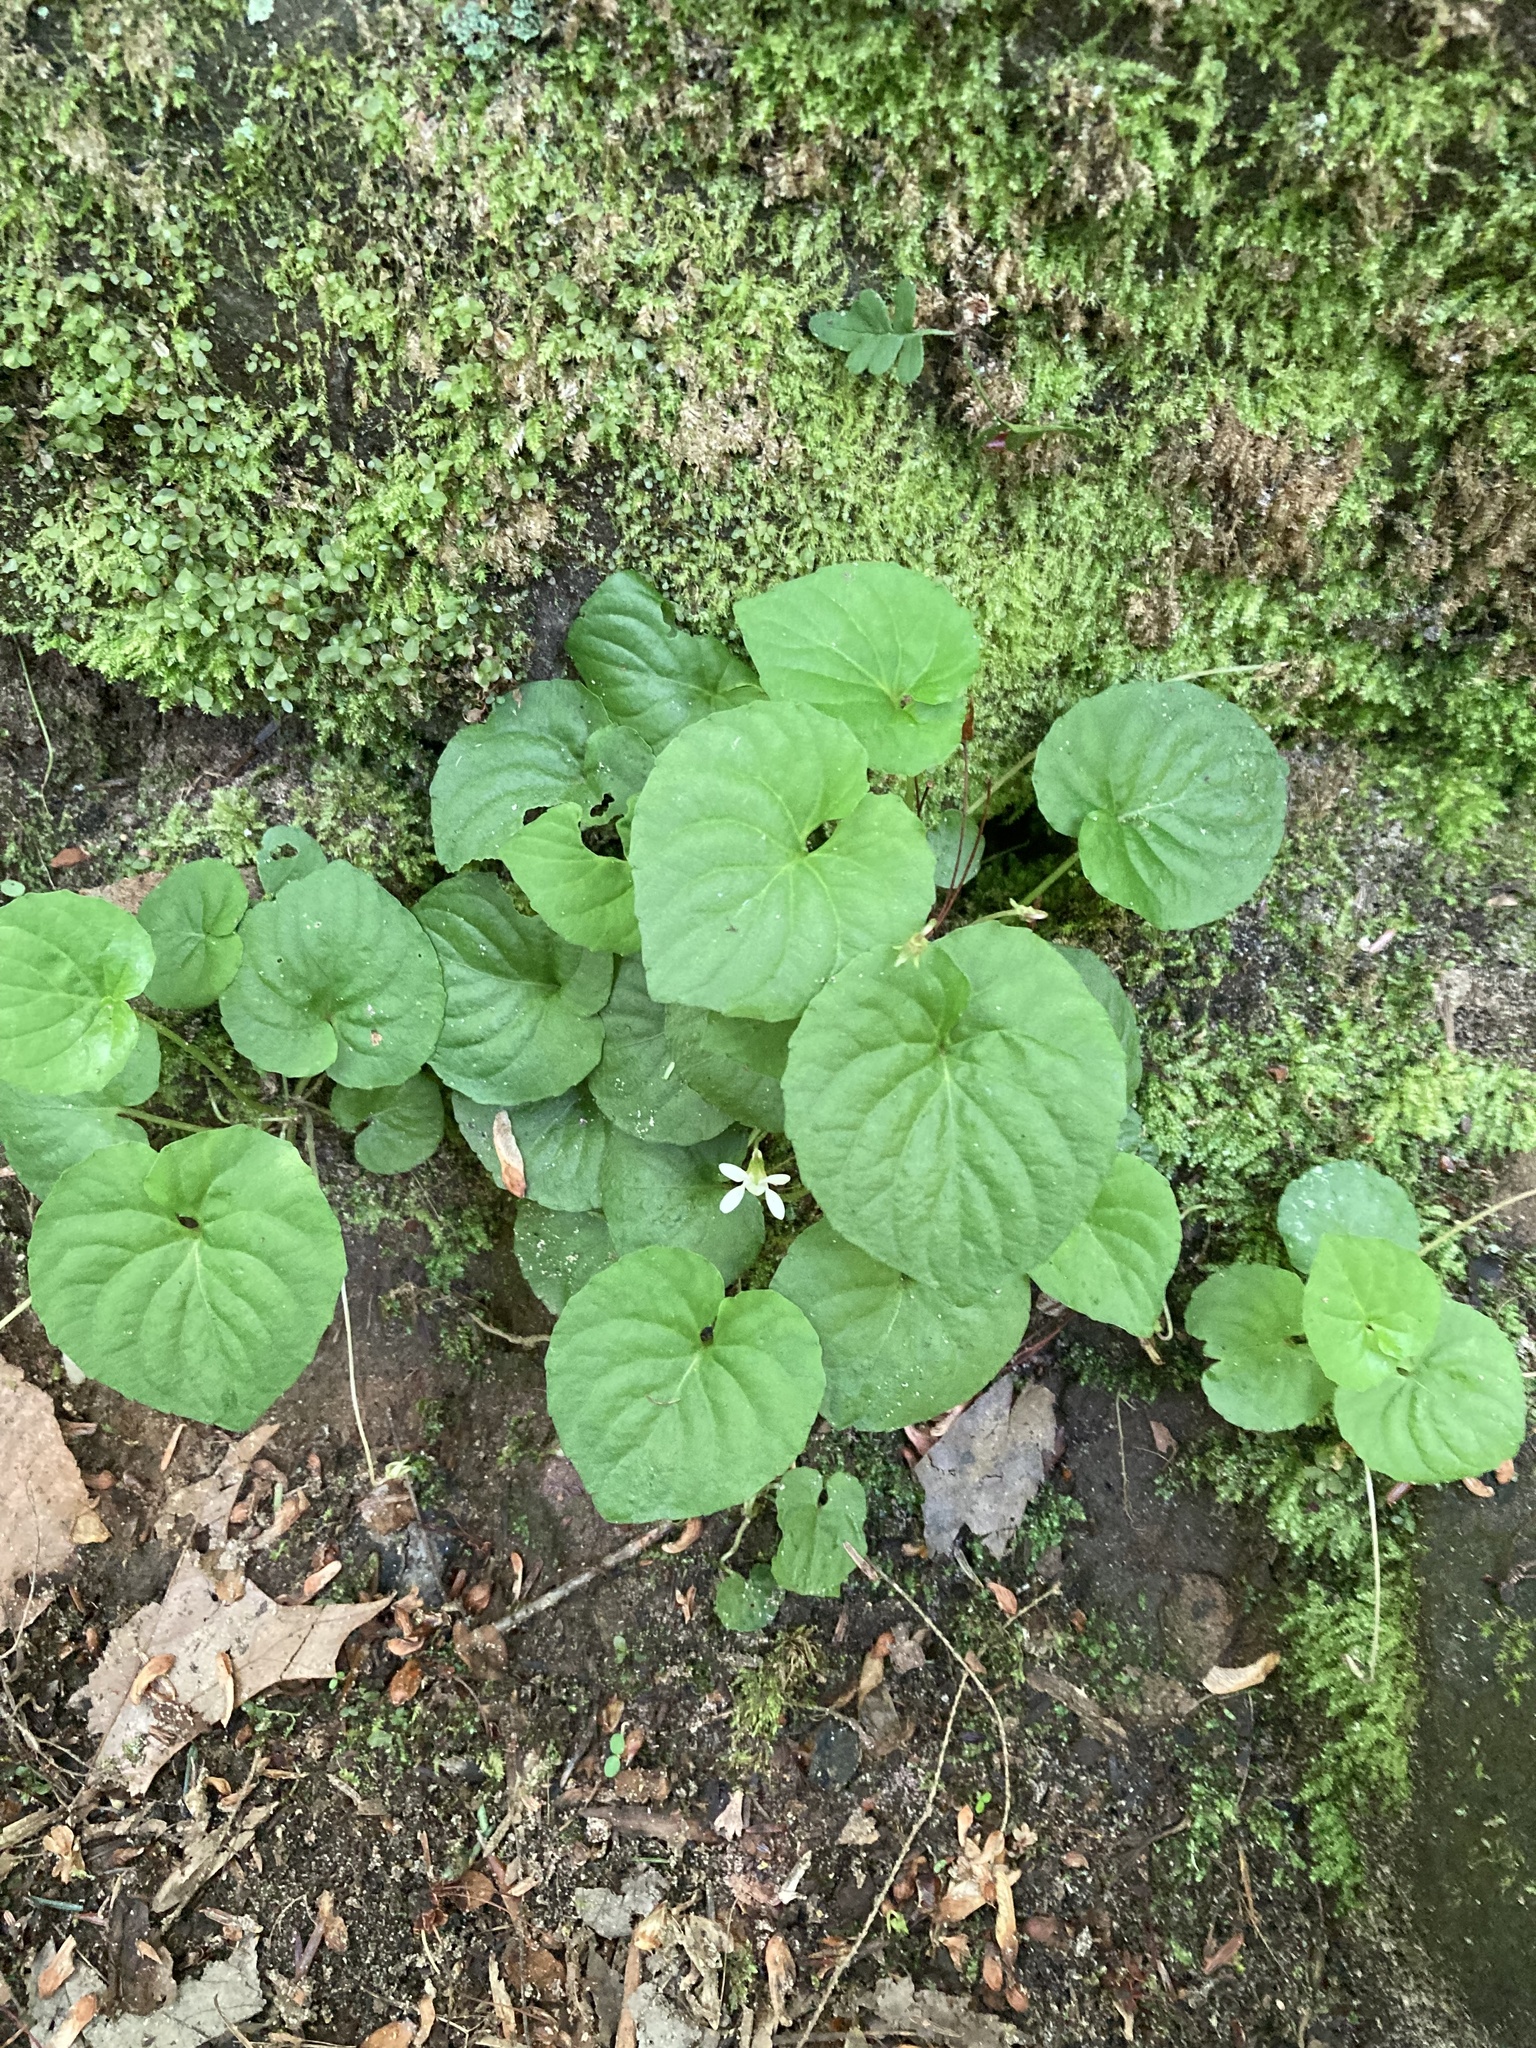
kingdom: Plantae
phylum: Tracheophyta
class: Magnoliopsida
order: Malpighiales
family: Violaceae
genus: Viola
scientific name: Viola blanda
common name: Sweet white violet
